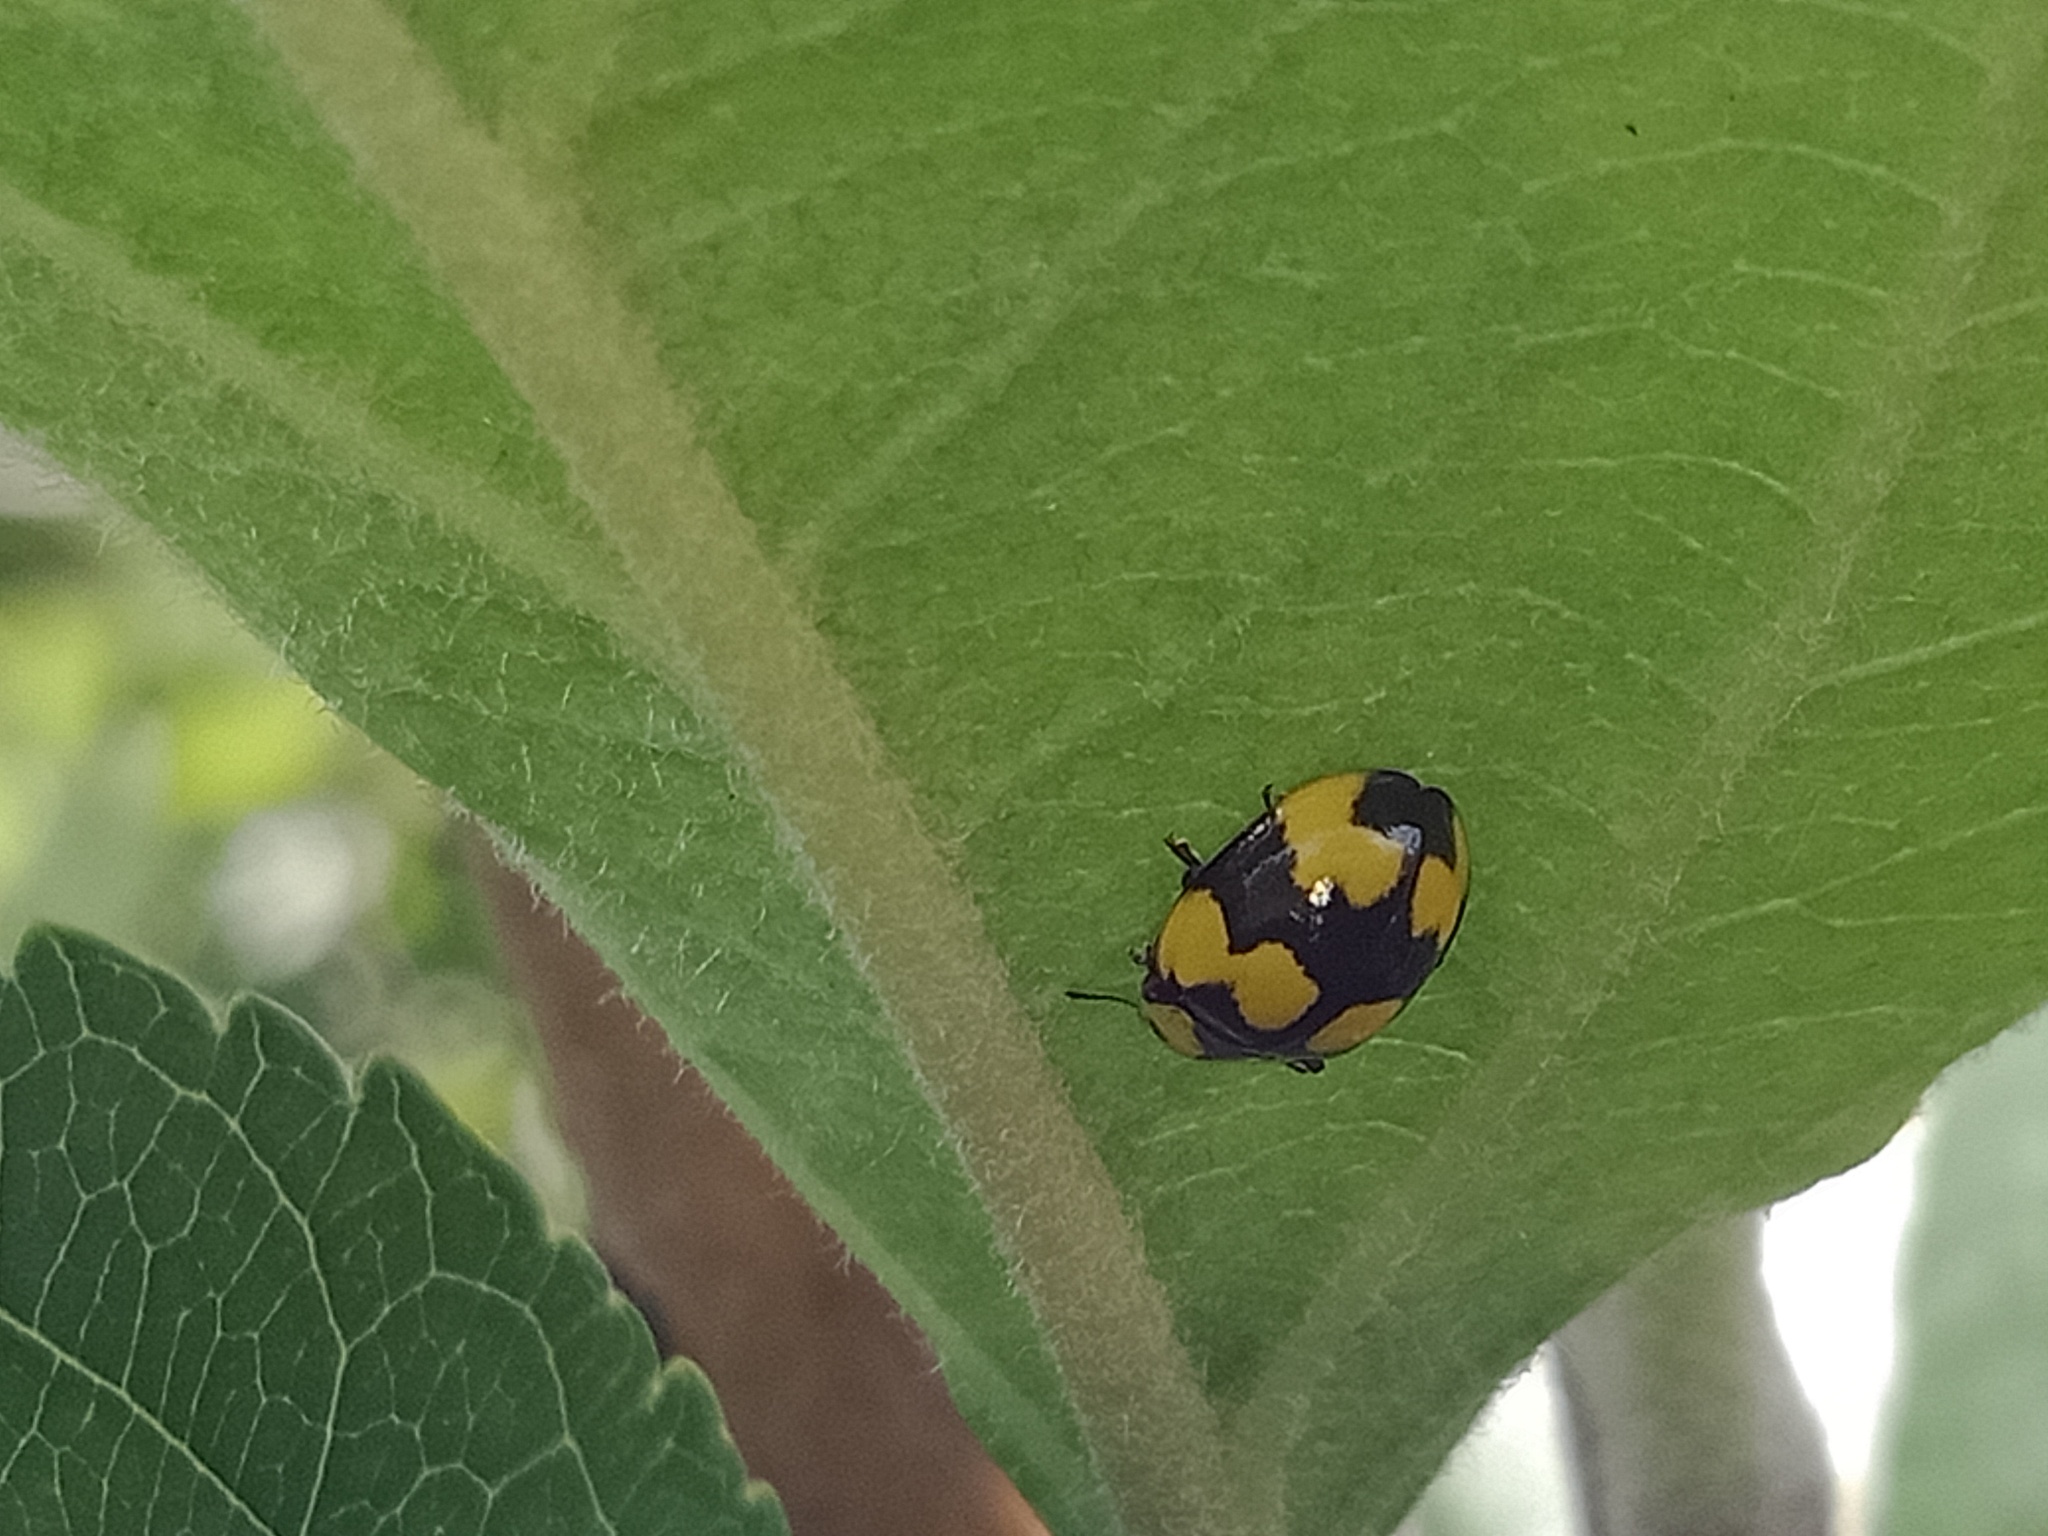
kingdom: Animalia
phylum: Arthropoda
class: Insecta
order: Coleoptera
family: Coccinellidae
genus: Illeis
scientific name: Illeis galbula
